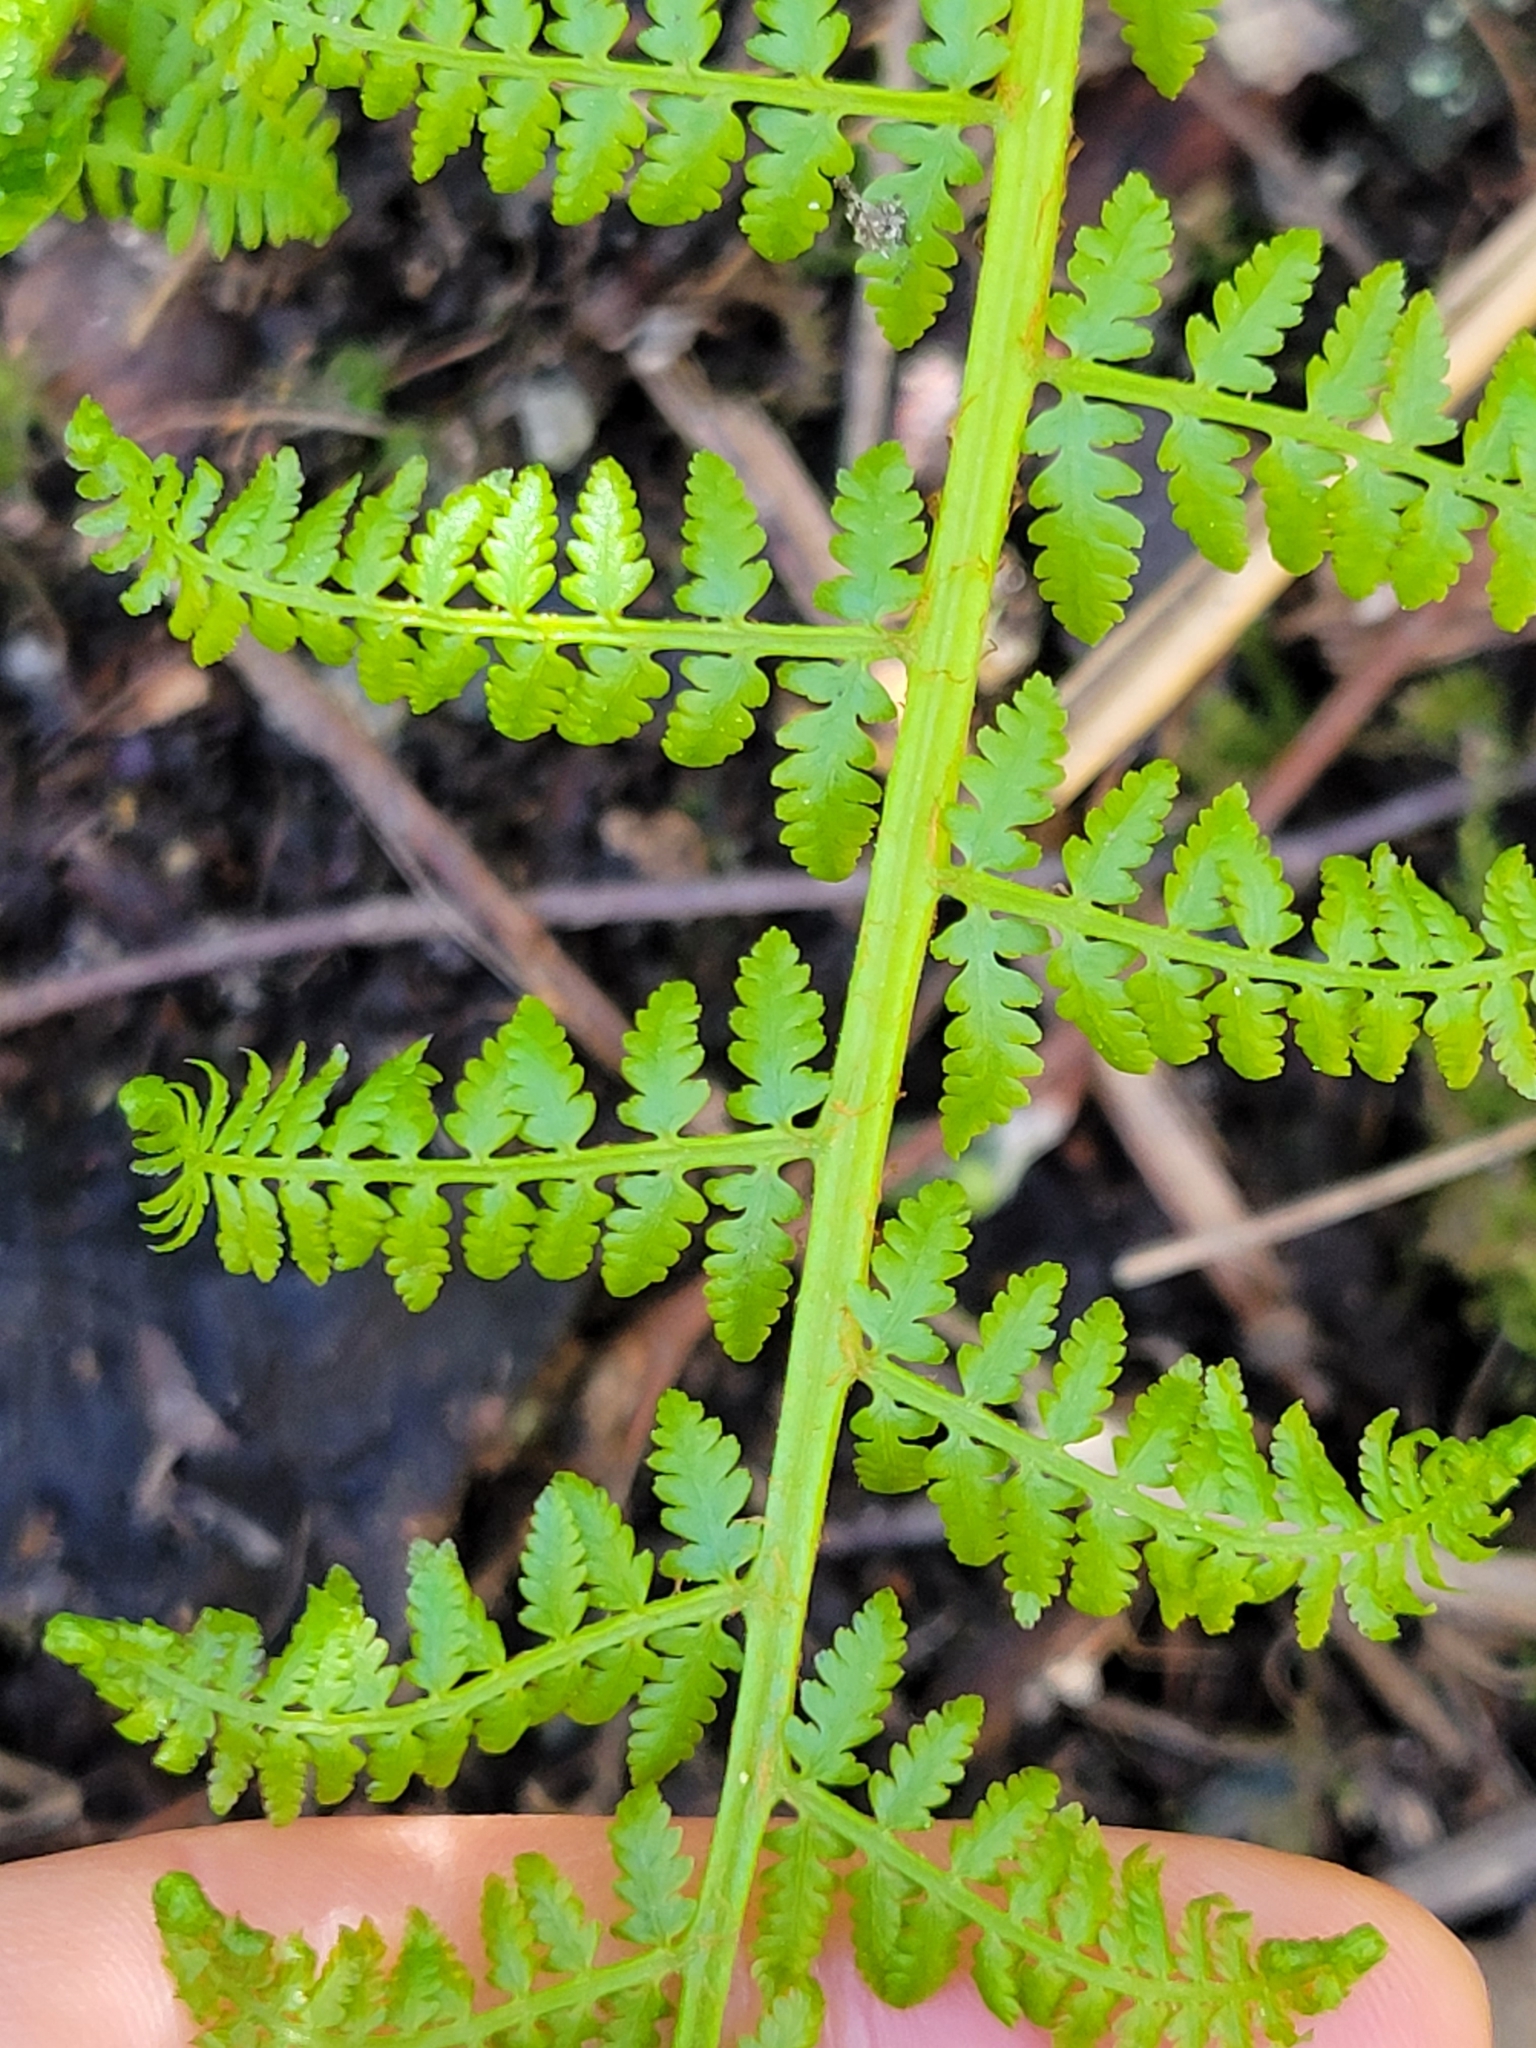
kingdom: Plantae
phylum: Tracheophyta
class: Polypodiopsida
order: Polypodiales
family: Athyriaceae
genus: Athyrium
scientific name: Athyrium filix-femina
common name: Lady fern
